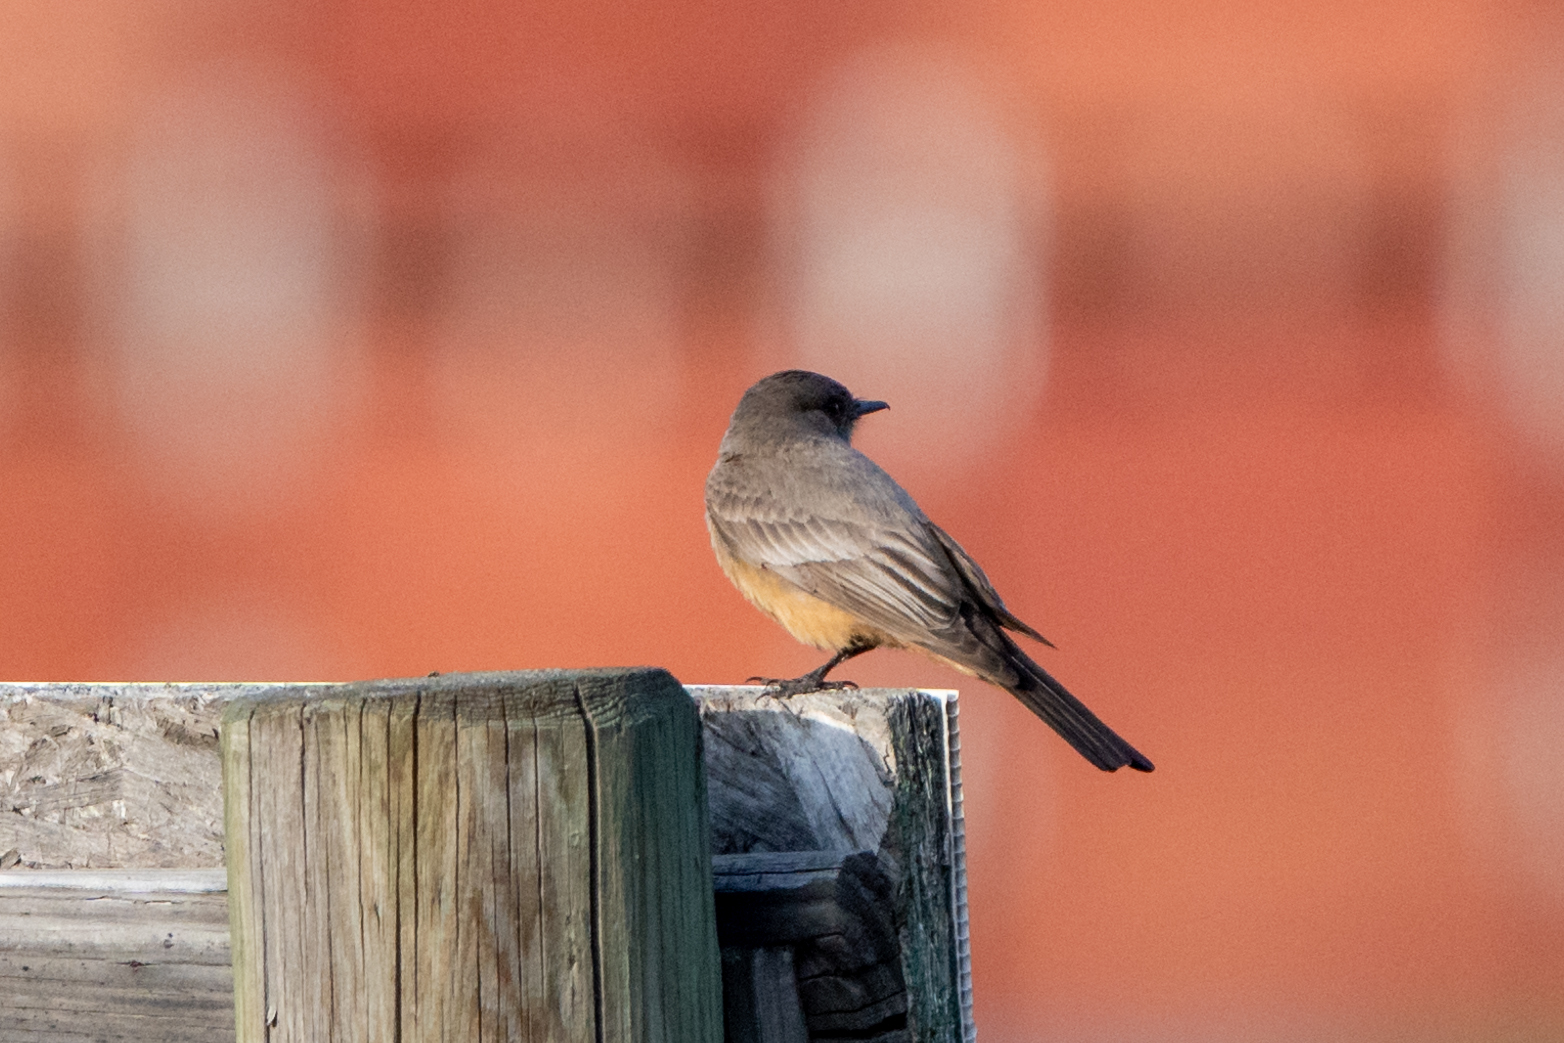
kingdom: Animalia
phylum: Chordata
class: Aves
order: Passeriformes
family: Tyrannidae
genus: Sayornis
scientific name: Sayornis saya
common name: Say's phoebe
